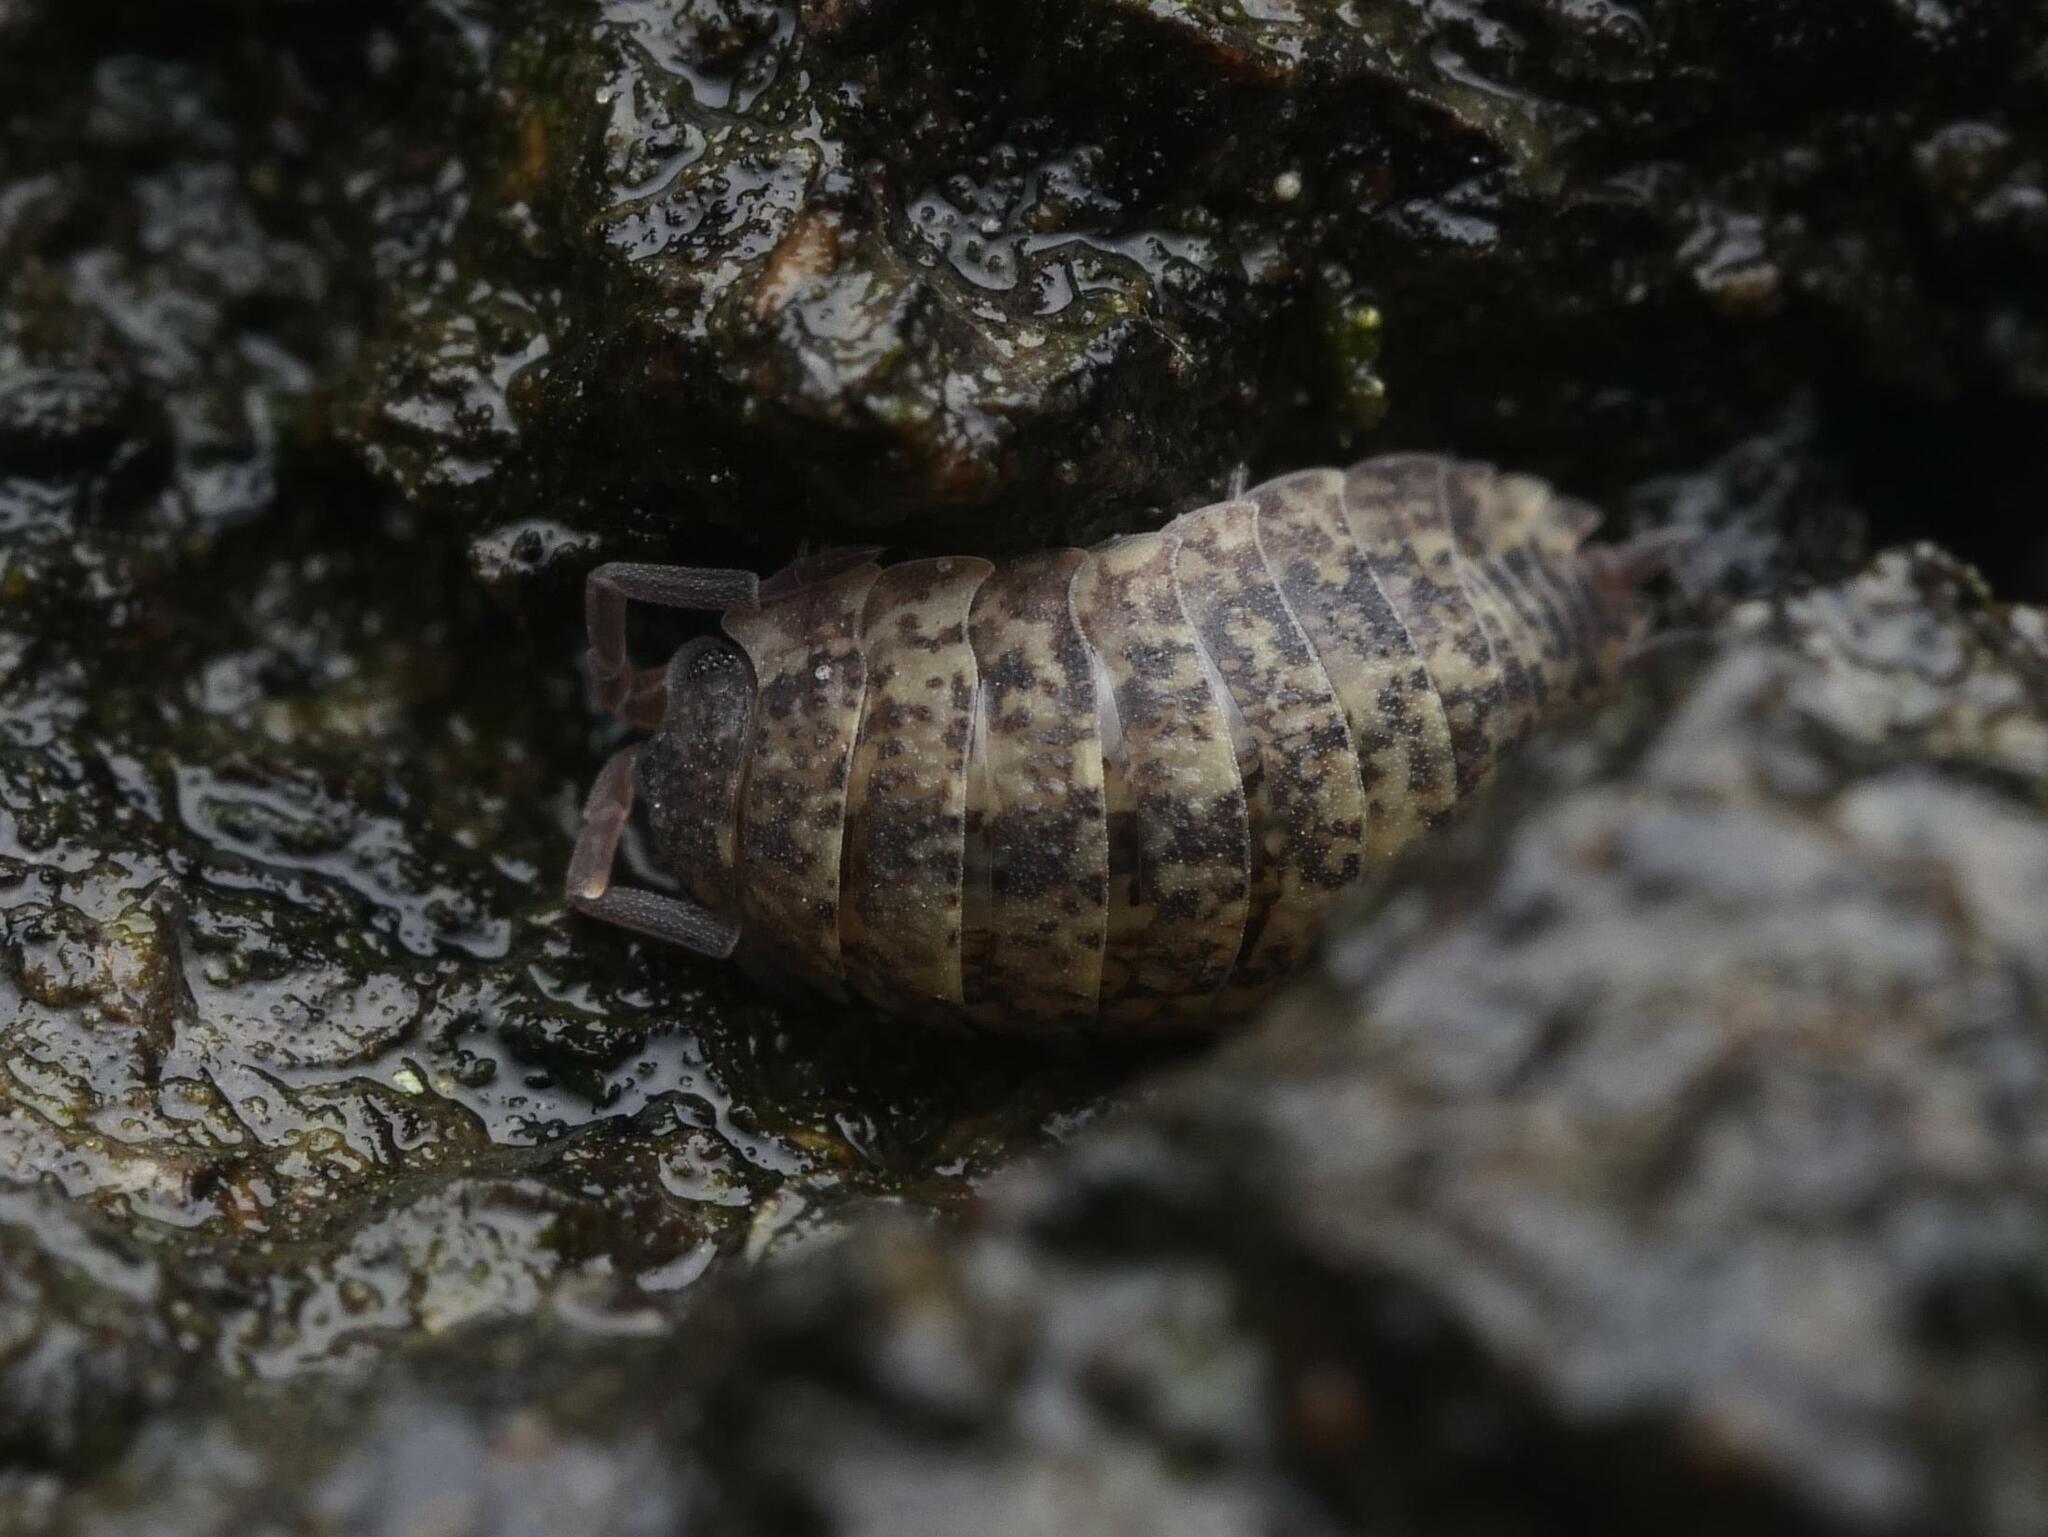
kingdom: Animalia
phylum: Arthropoda
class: Malacostraca
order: Isopoda
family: Porcellionidae
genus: Porcellio
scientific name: Porcellio scaber
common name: Common rough woodlouse
